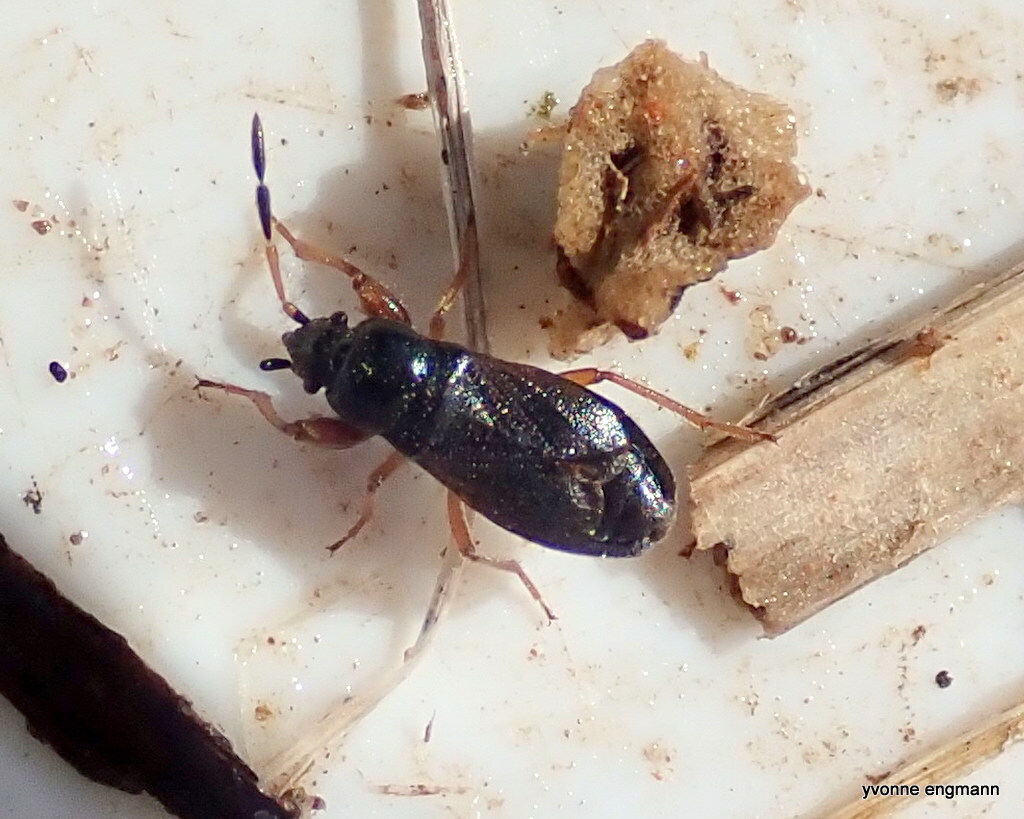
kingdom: Animalia
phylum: Arthropoda
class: Insecta
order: Hemiptera
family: Rhyparochromidae
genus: Megalonotus
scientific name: Megalonotus antennatus
